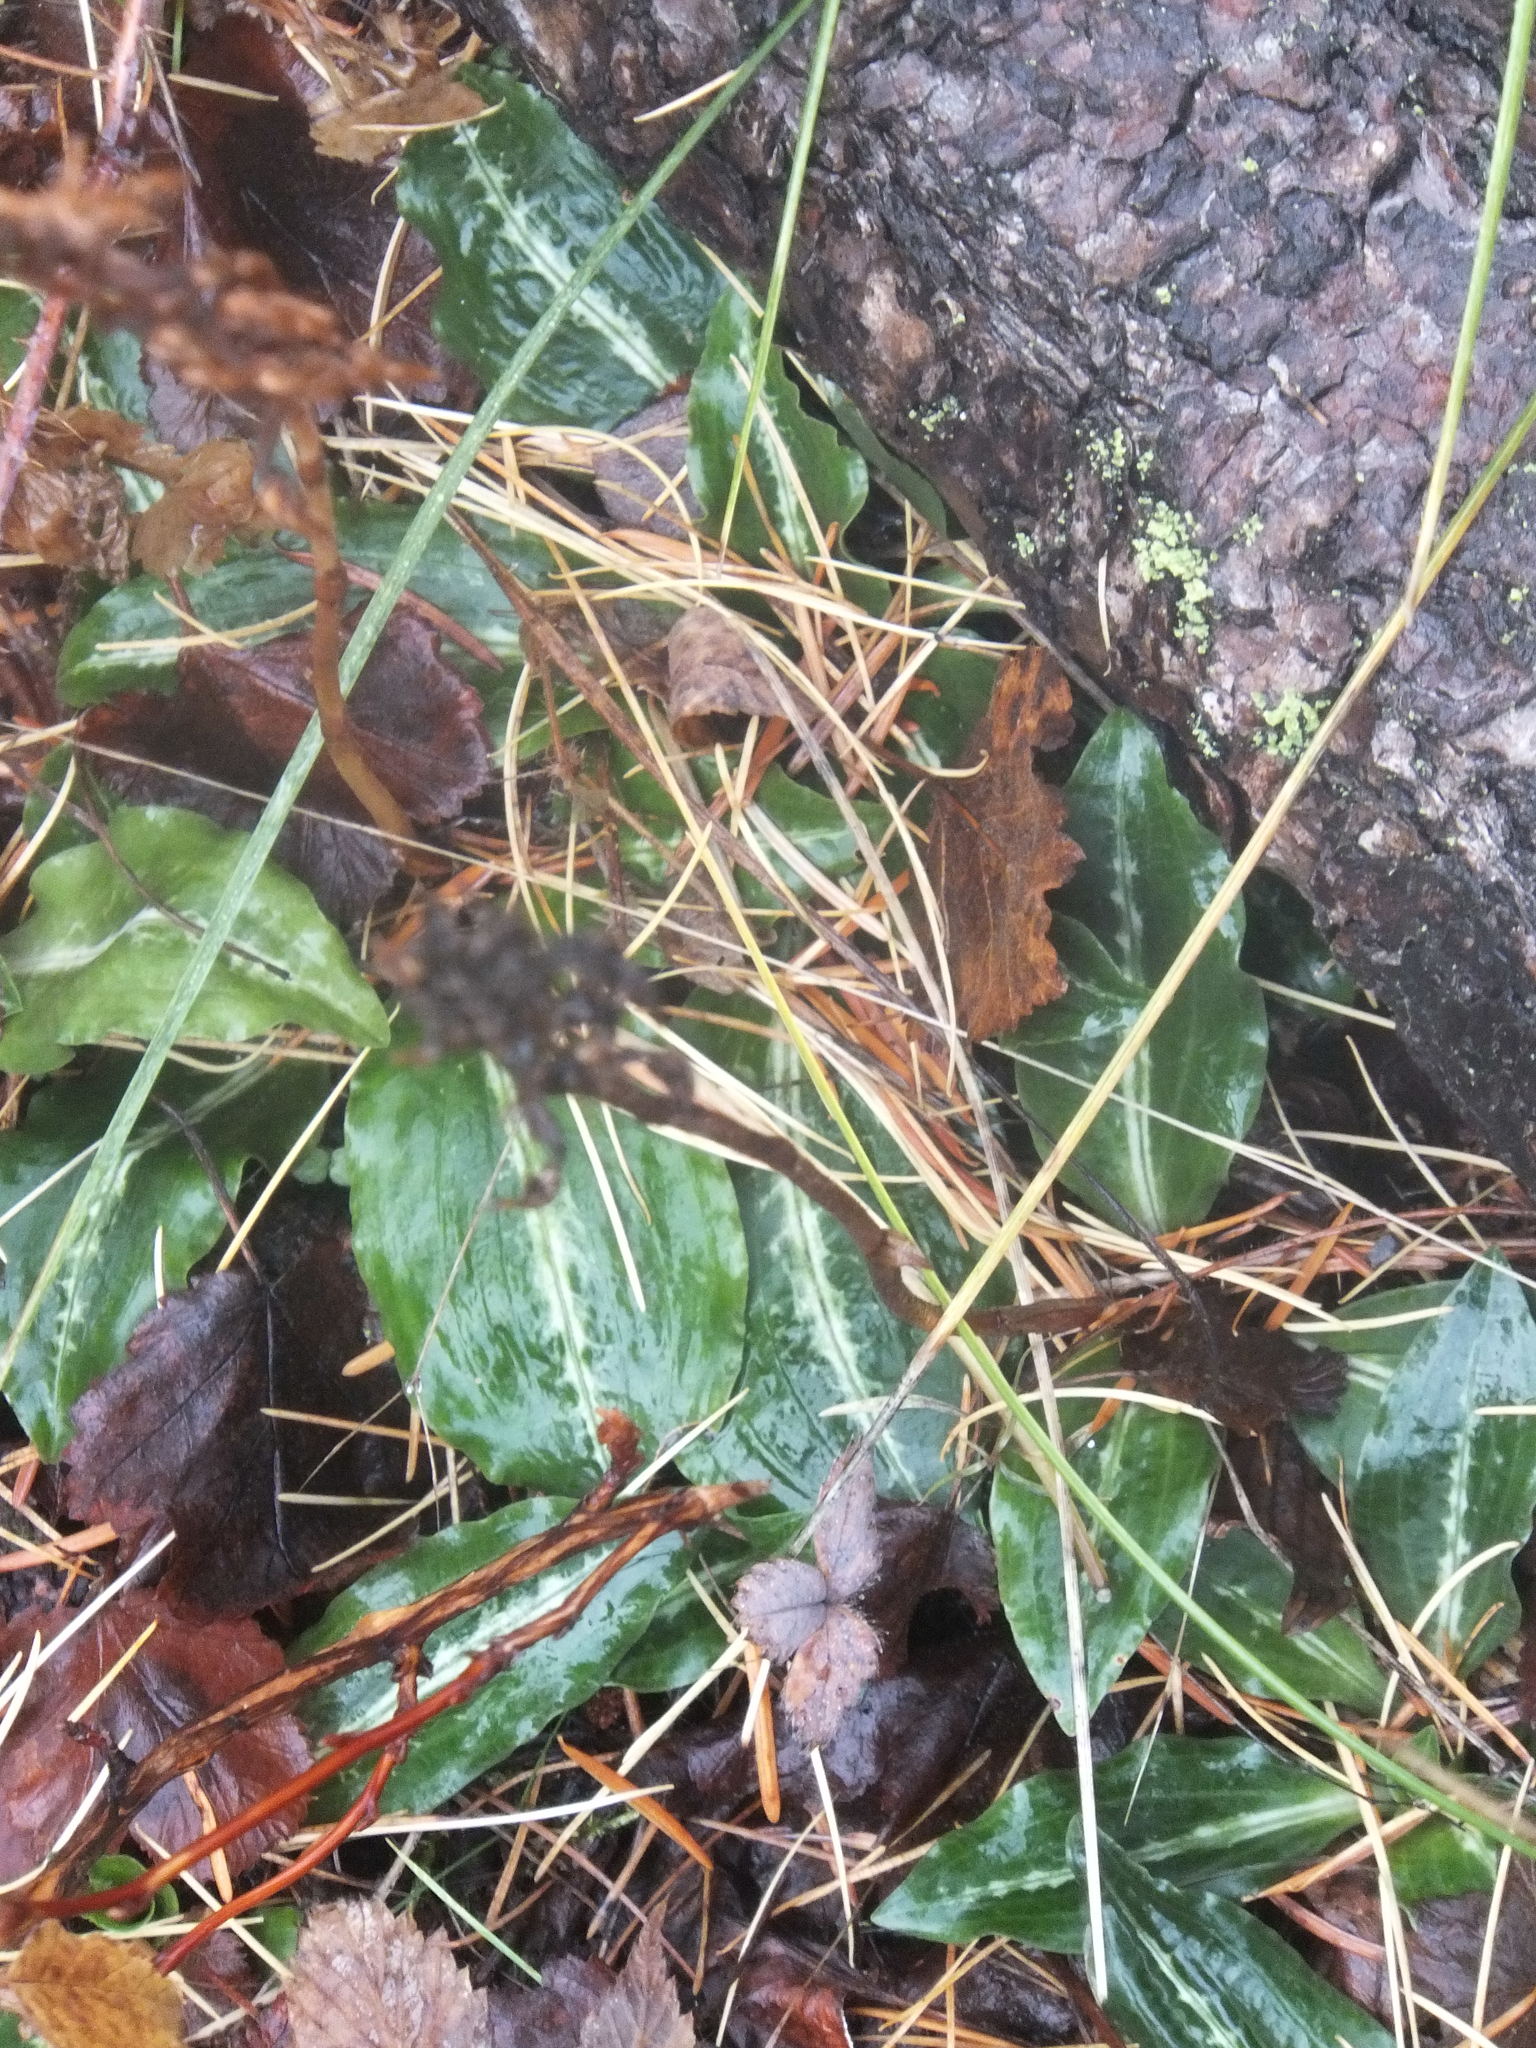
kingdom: Plantae
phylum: Tracheophyta
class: Liliopsida
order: Asparagales
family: Orchidaceae
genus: Goodyera
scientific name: Goodyera oblongifolia
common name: Giant rattlesnake-plantain
